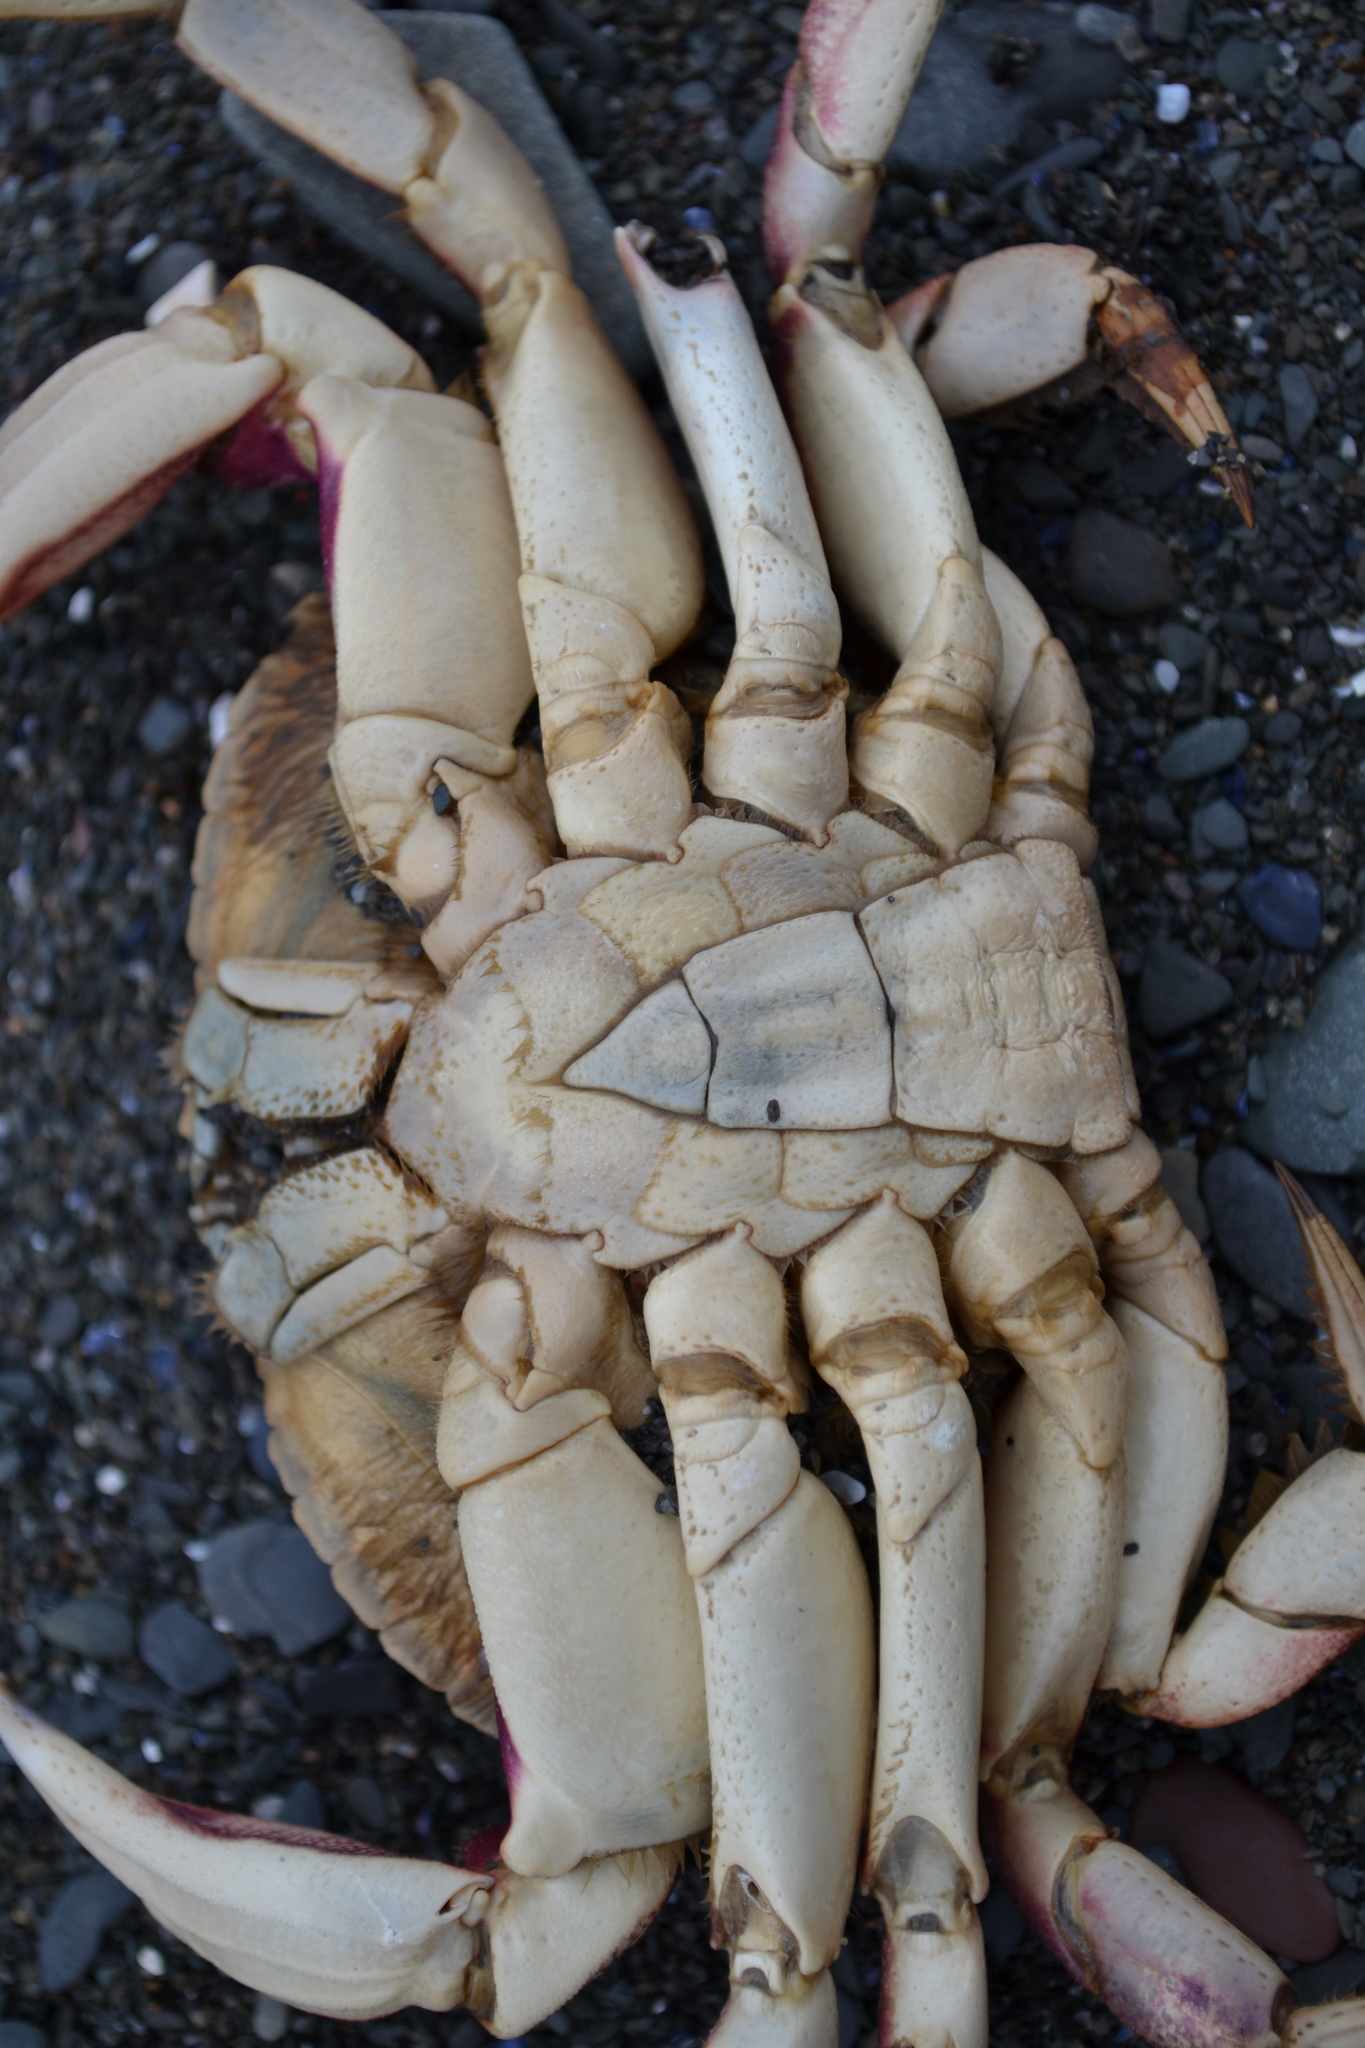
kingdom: Animalia
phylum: Arthropoda
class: Malacostraca
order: Decapoda
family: Cancridae
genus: Cancer
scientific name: Cancer irroratus
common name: Atlantic rock crab
